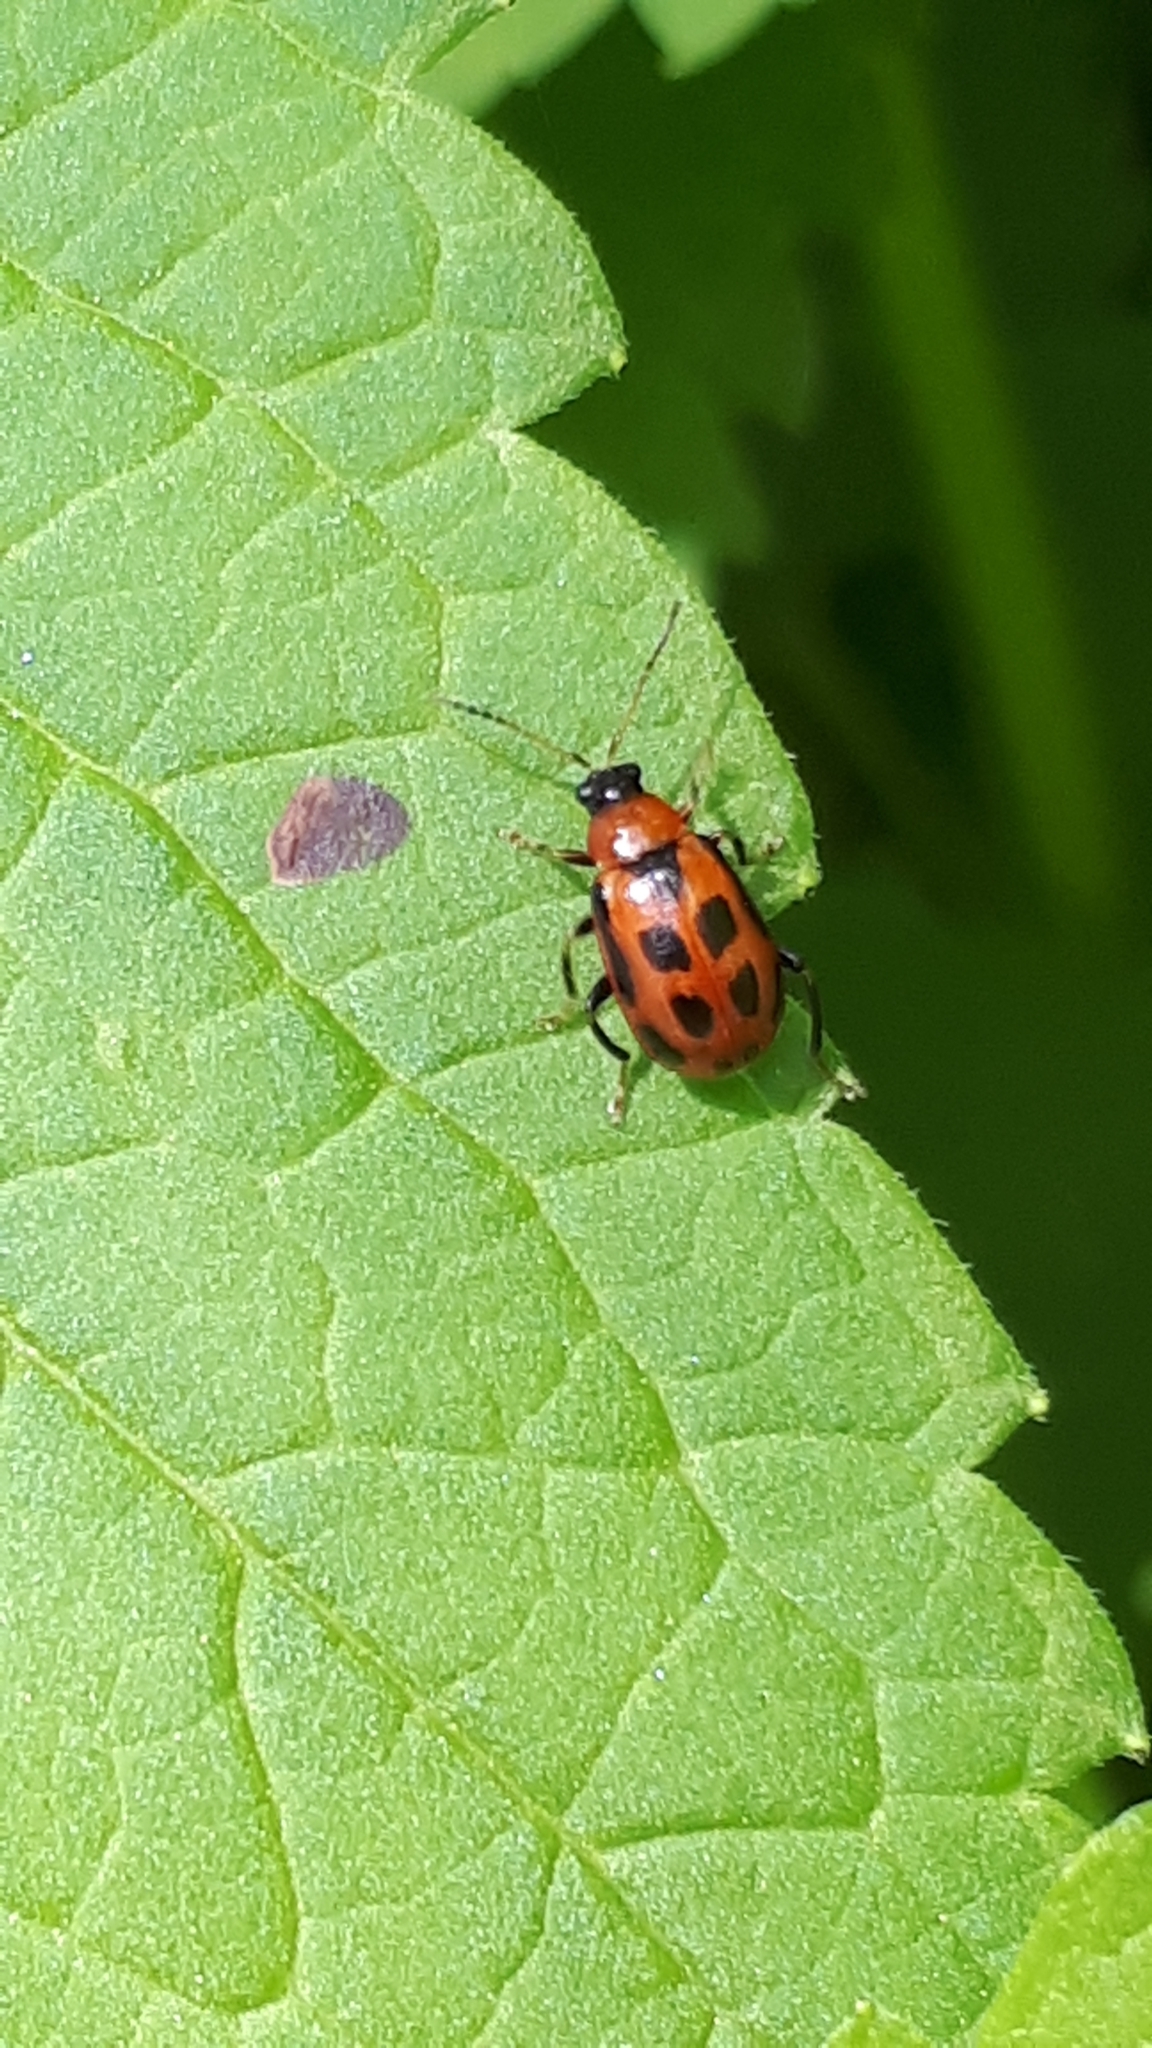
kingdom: Animalia
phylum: Arthropoda
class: Insecta
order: Coleoptera
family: Chrysomelidae
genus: Cerotoma
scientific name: Cerotoma trifurcata
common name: Bean leaf beetle
